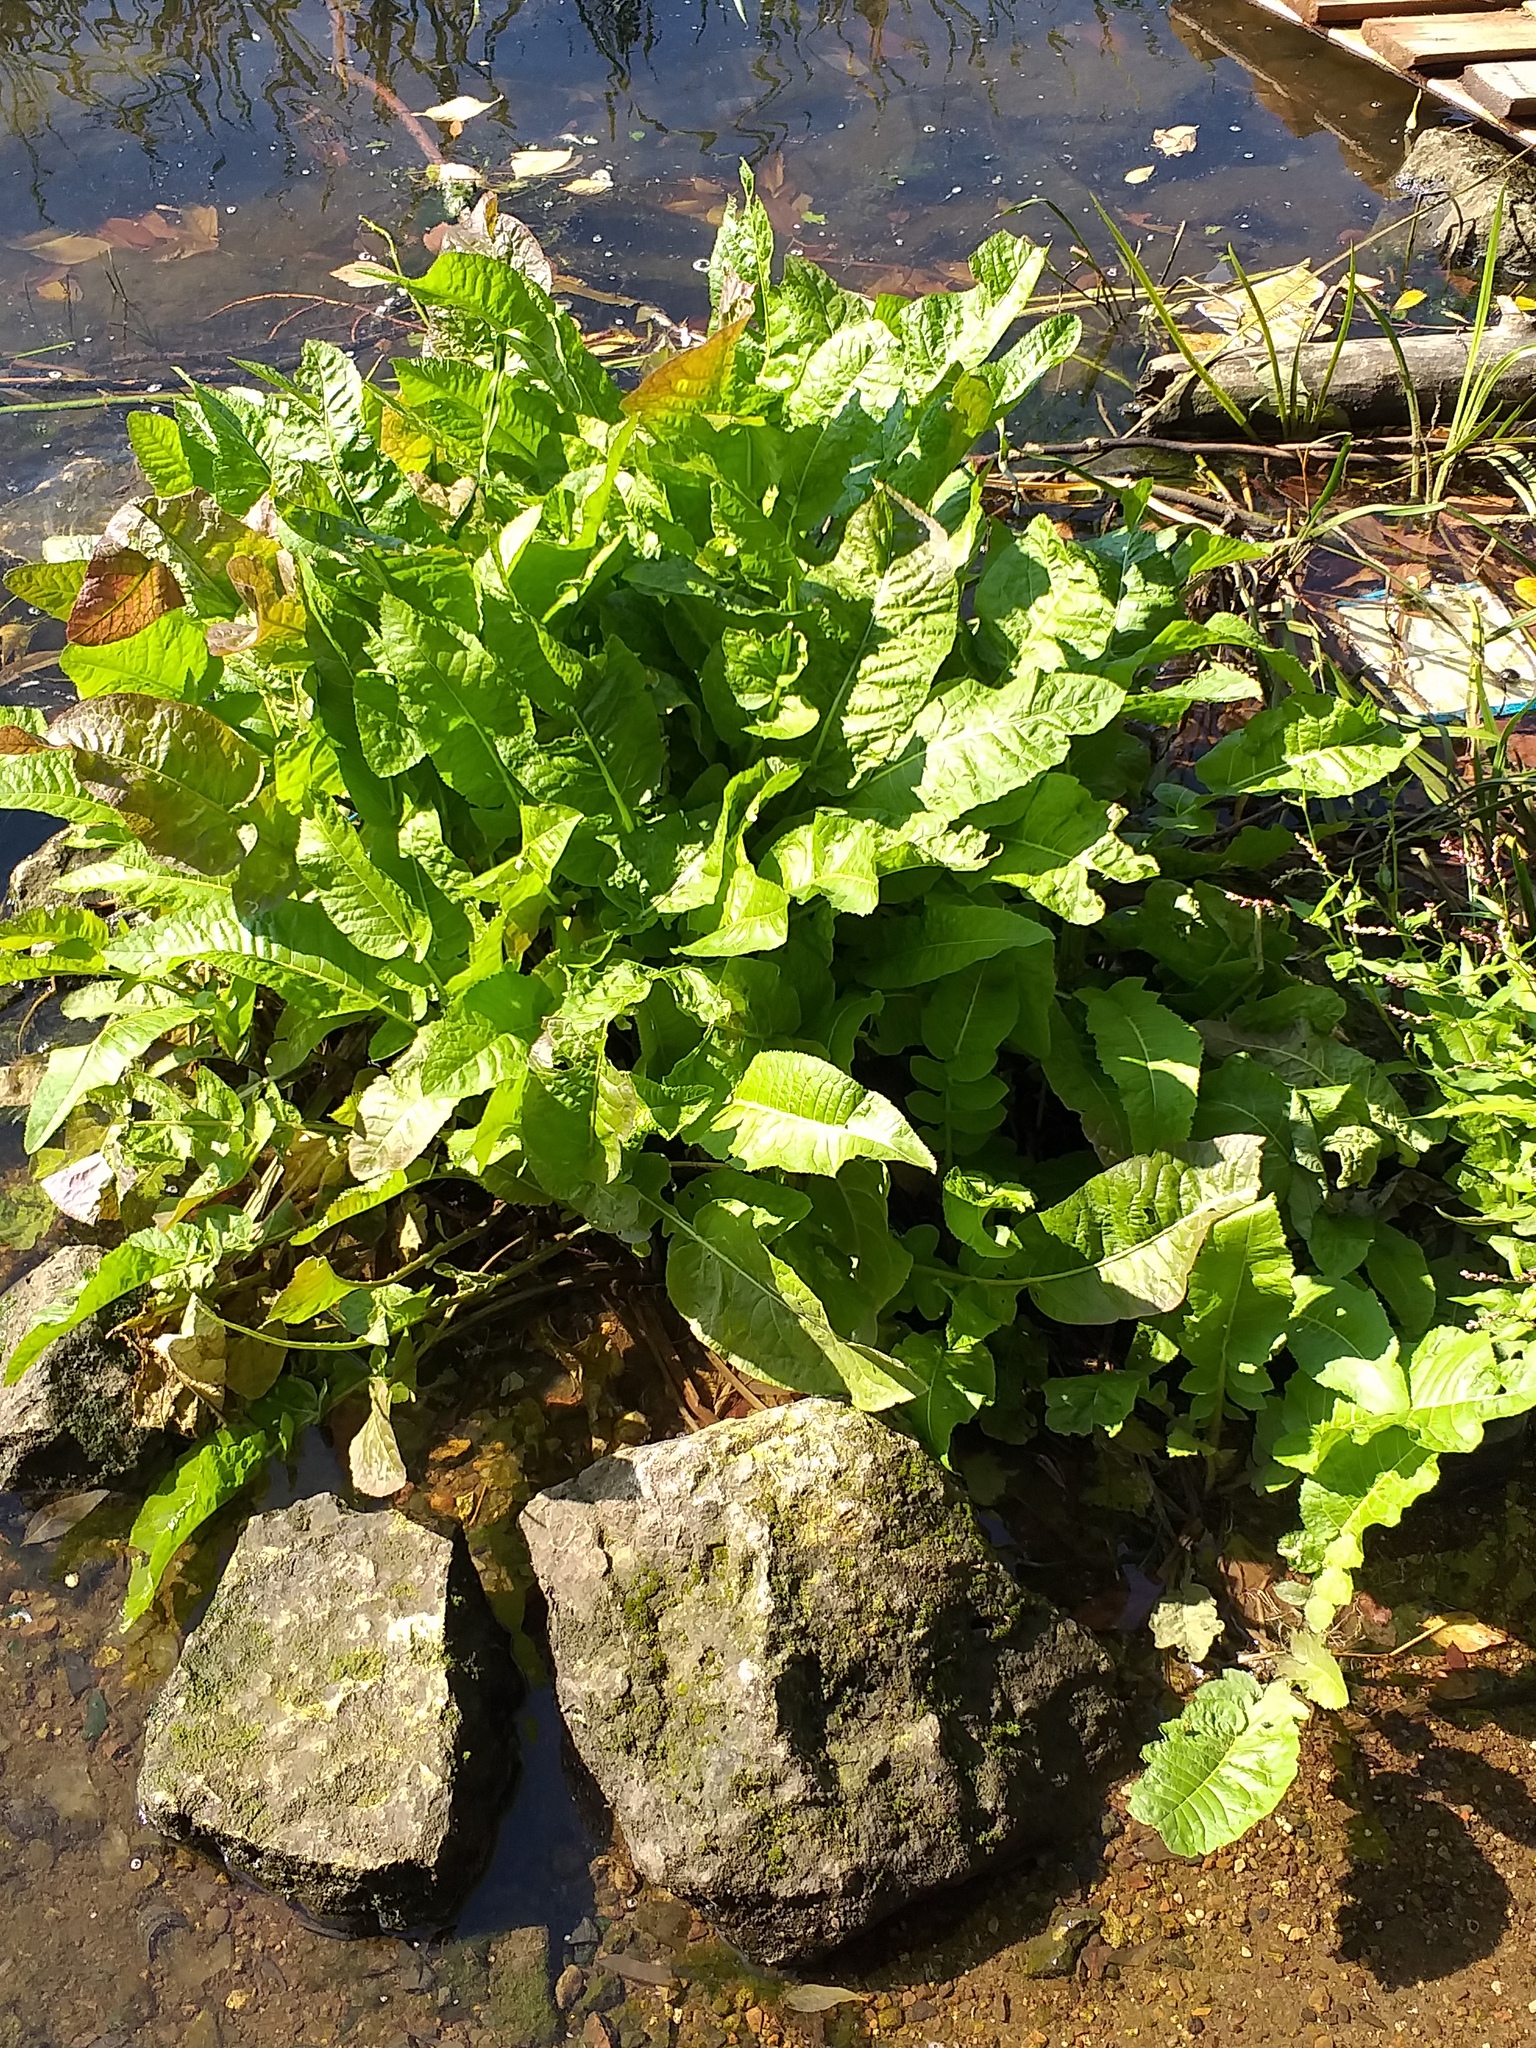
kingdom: Plantae
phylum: Tracheophyta
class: Magnoliopsida
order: Brassicales
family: Brassicaceae
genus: Rorippa
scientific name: Rorippa amphibia
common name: Great yellow-cress
